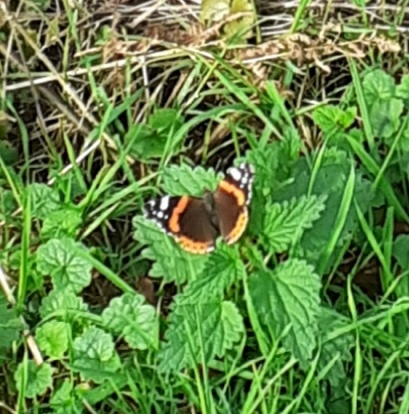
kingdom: Animalia
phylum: Arthropoda
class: Insecta
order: Lepidoptera
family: Nymphalidae
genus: Vanessa
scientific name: Vanessa atalanta
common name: Red admiral
